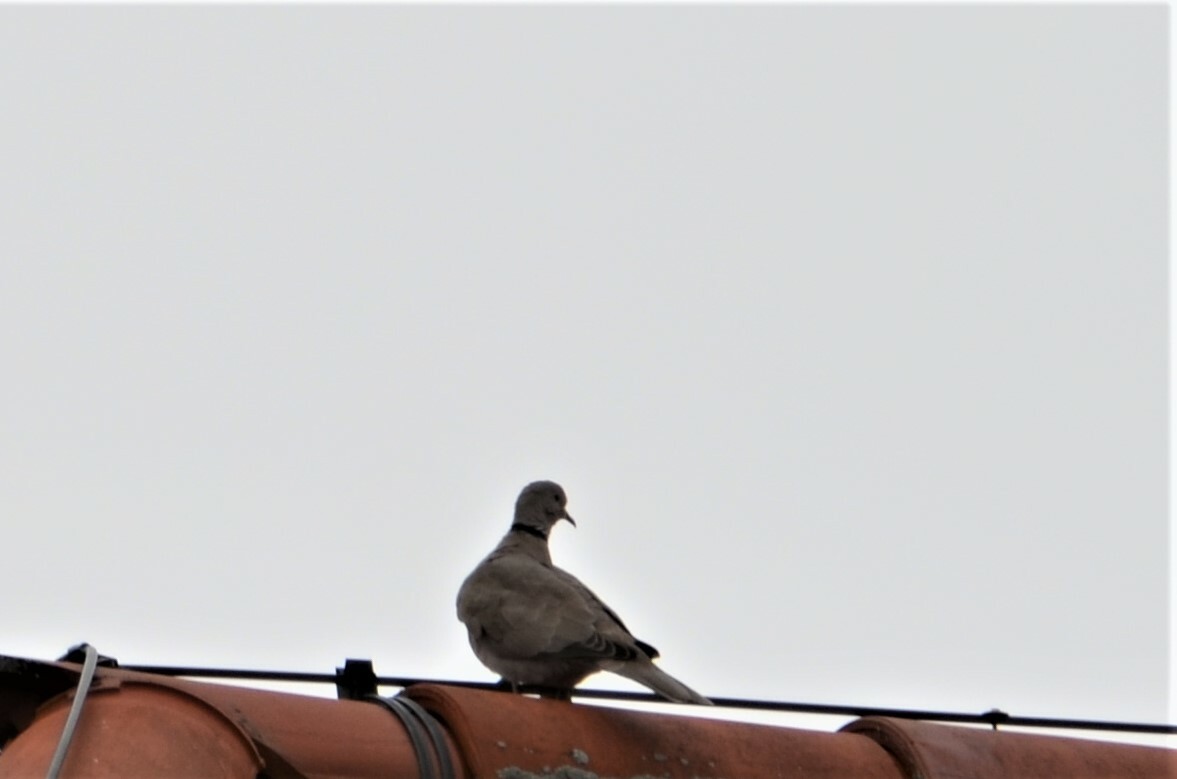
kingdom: Animalia
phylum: Chordata
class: Aves
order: Columbiformes
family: Columbidae
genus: Streptopelia
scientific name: Streptopelia decaocto
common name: Eurasian collared dove
